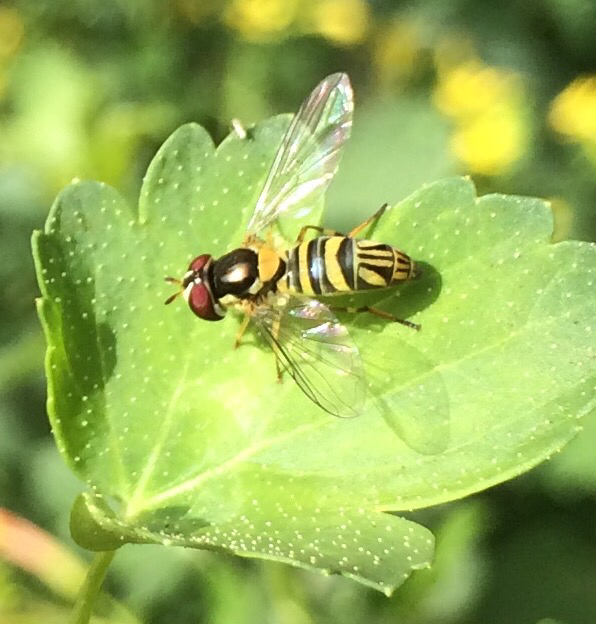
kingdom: Animalia
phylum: Arthropoda
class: Insecta
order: Diptera
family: Syrphidae
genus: Allograpta
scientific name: Allograpta obliqua
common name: Common oblique syrphid
